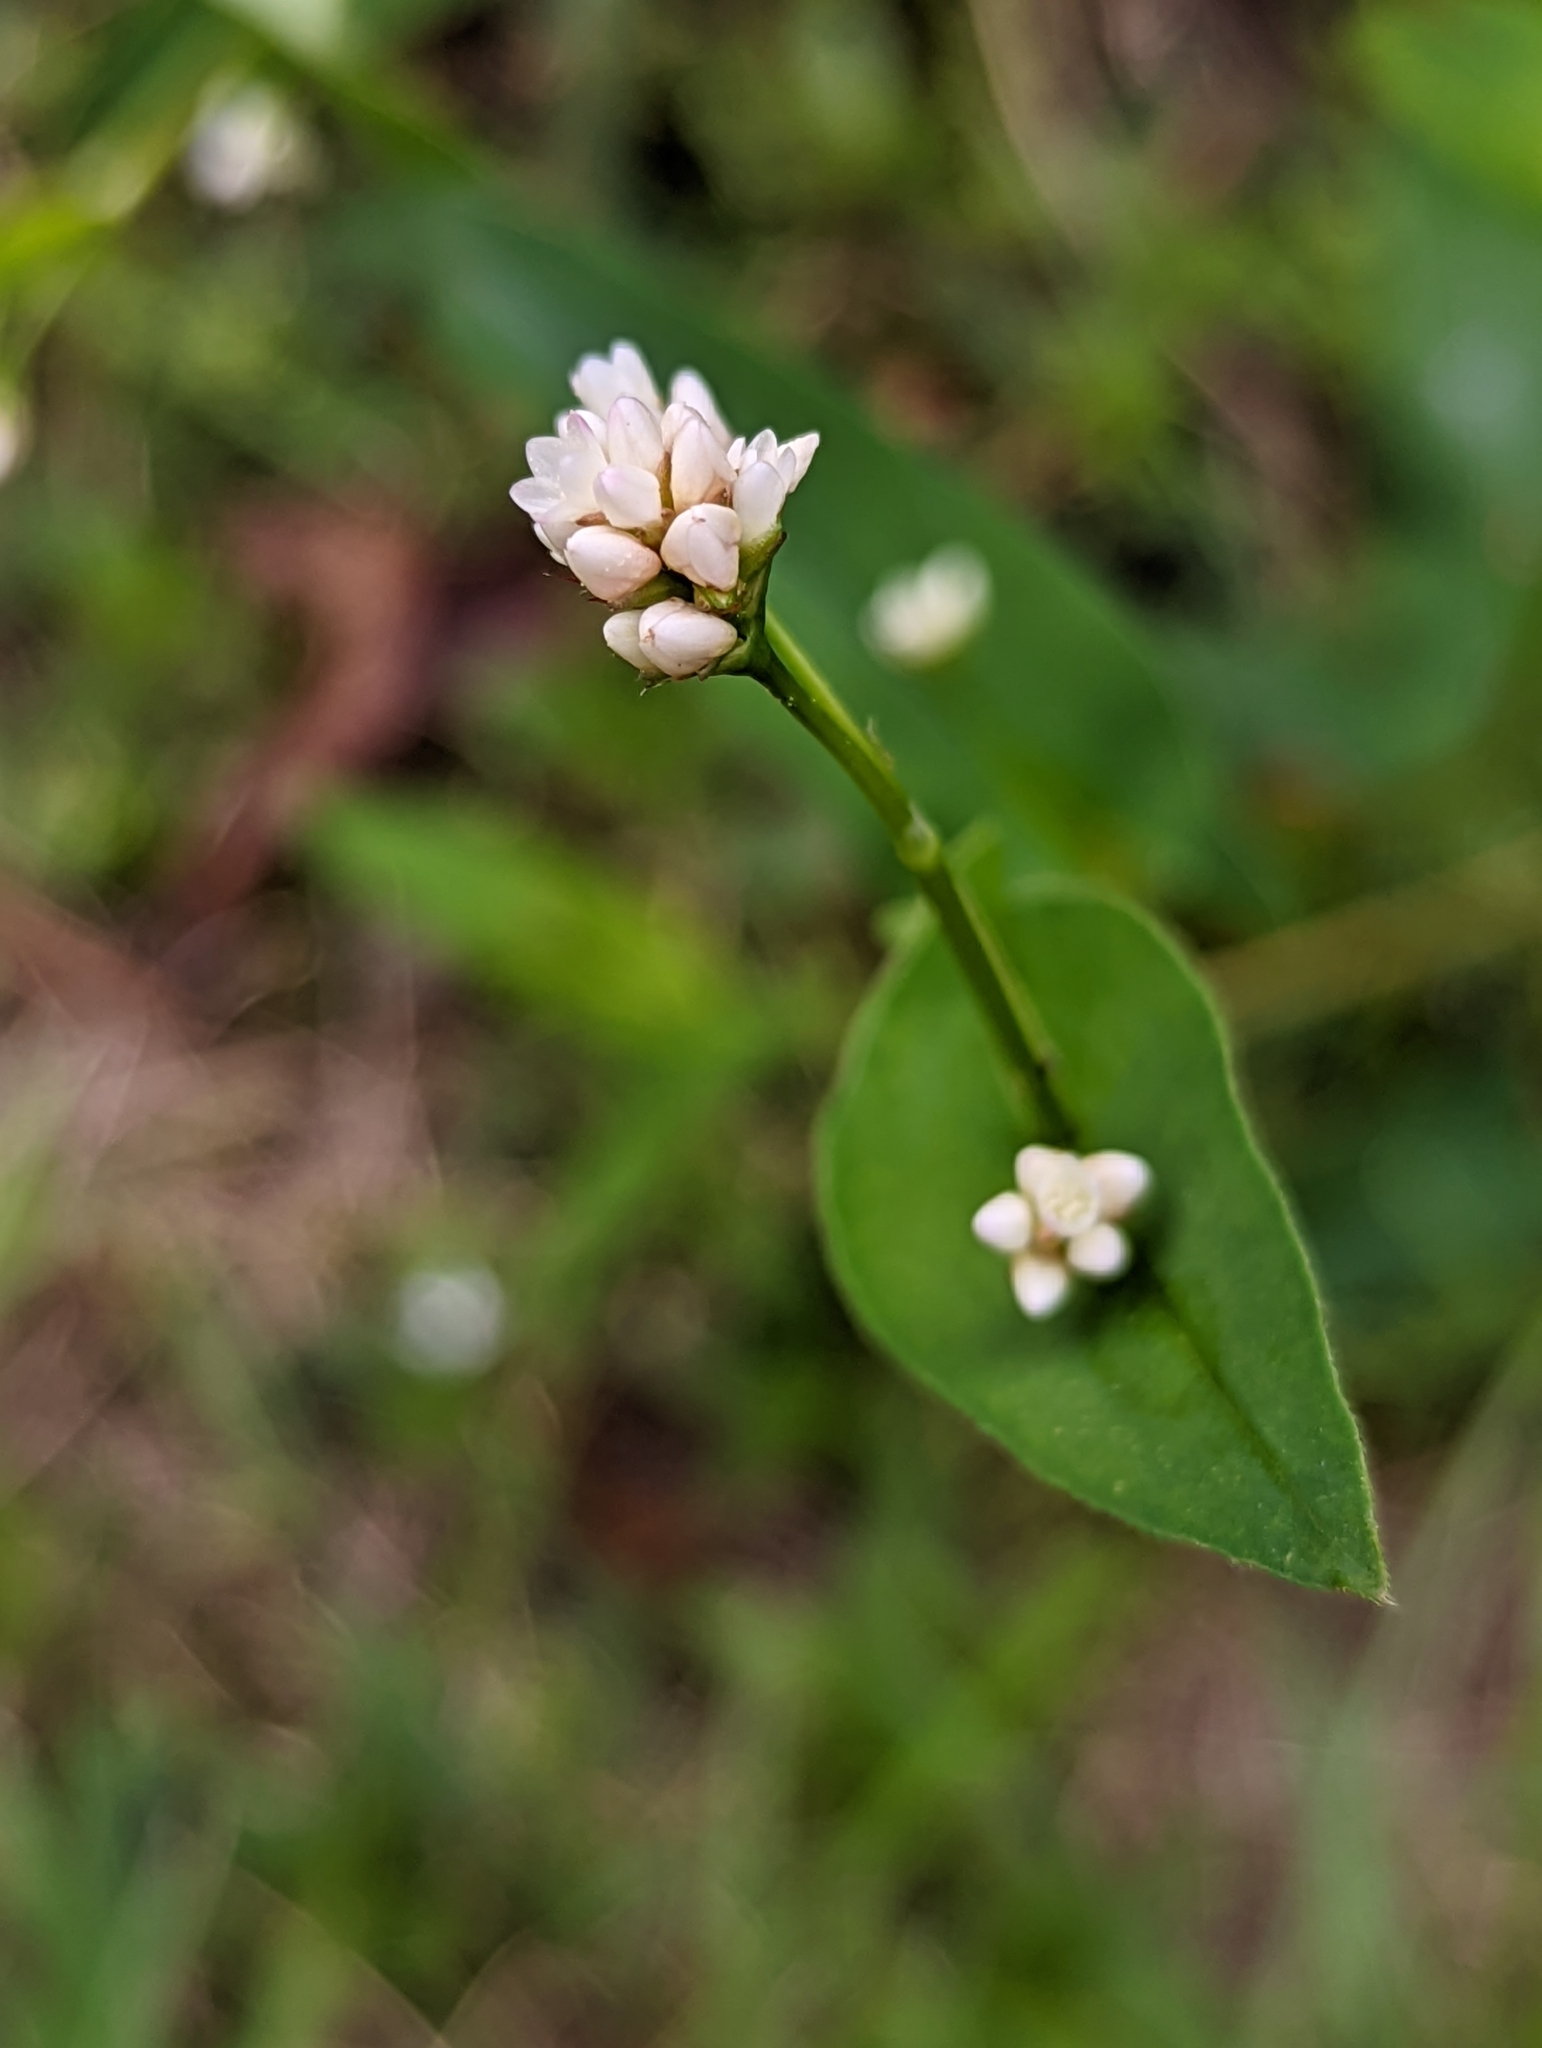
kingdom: Plantae
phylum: Tracheophyta
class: Magnoliopsida
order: Caryophyllales
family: Polygonaceae
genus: Persicaria
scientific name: Persicaria sagittata
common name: American tearthumb
